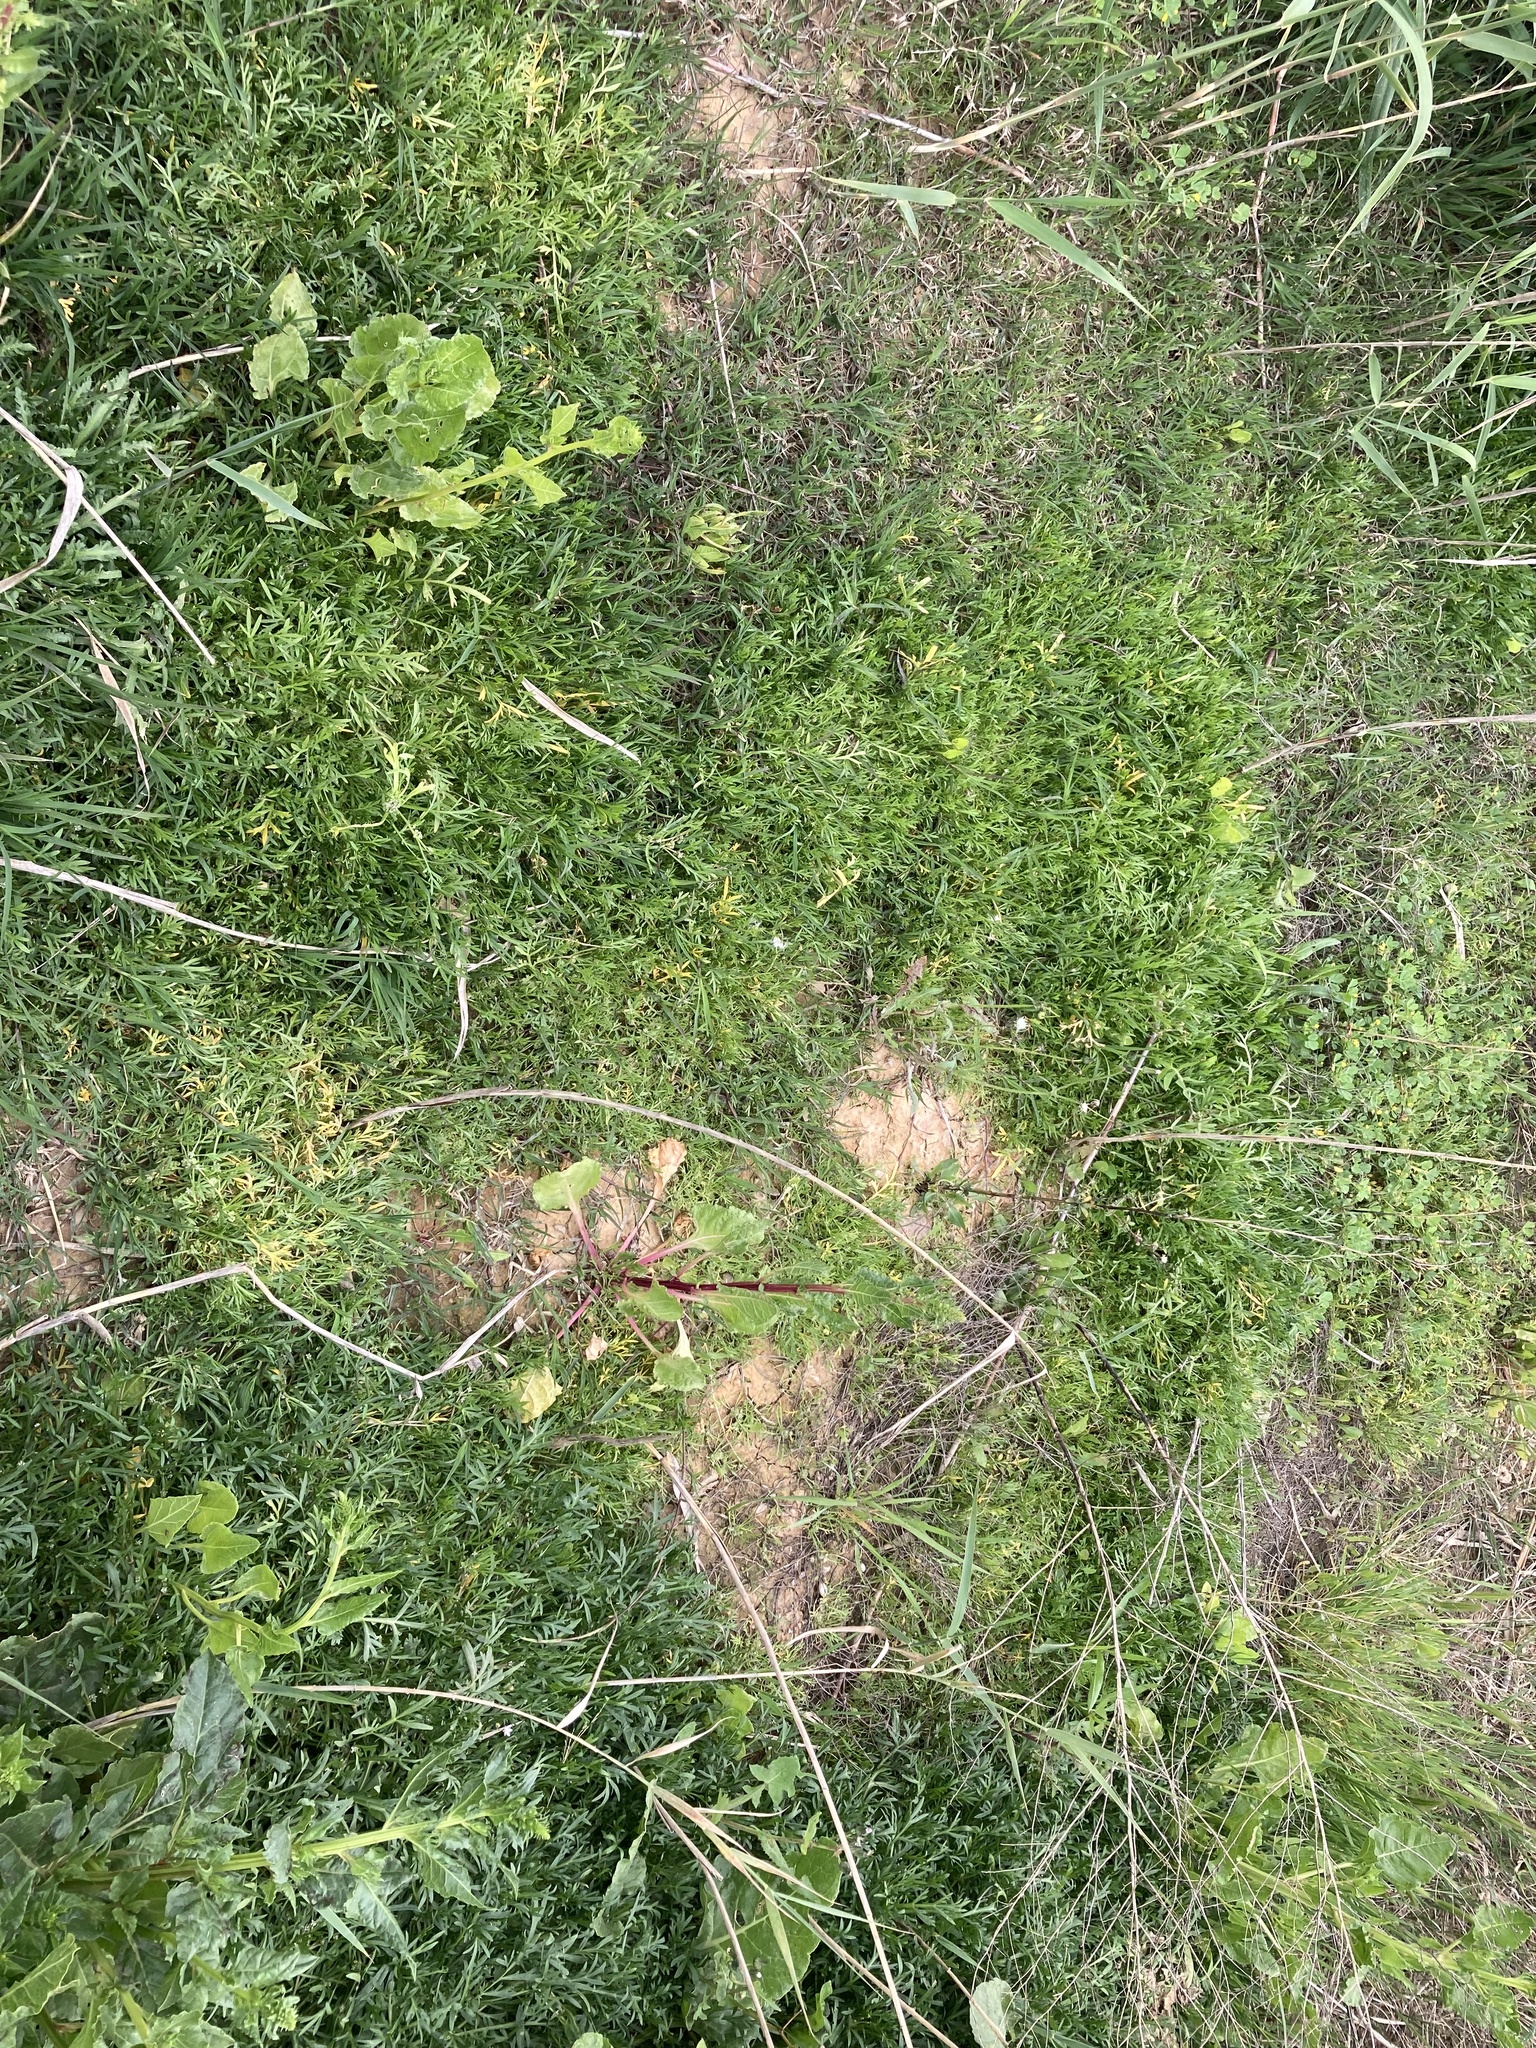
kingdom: Plantae
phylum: Tracheophyta
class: Magnoliopsida
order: Brassicales
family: Brassicaceae
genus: Lepidium
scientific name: Lepidium coronopus
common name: Greater swinecress
